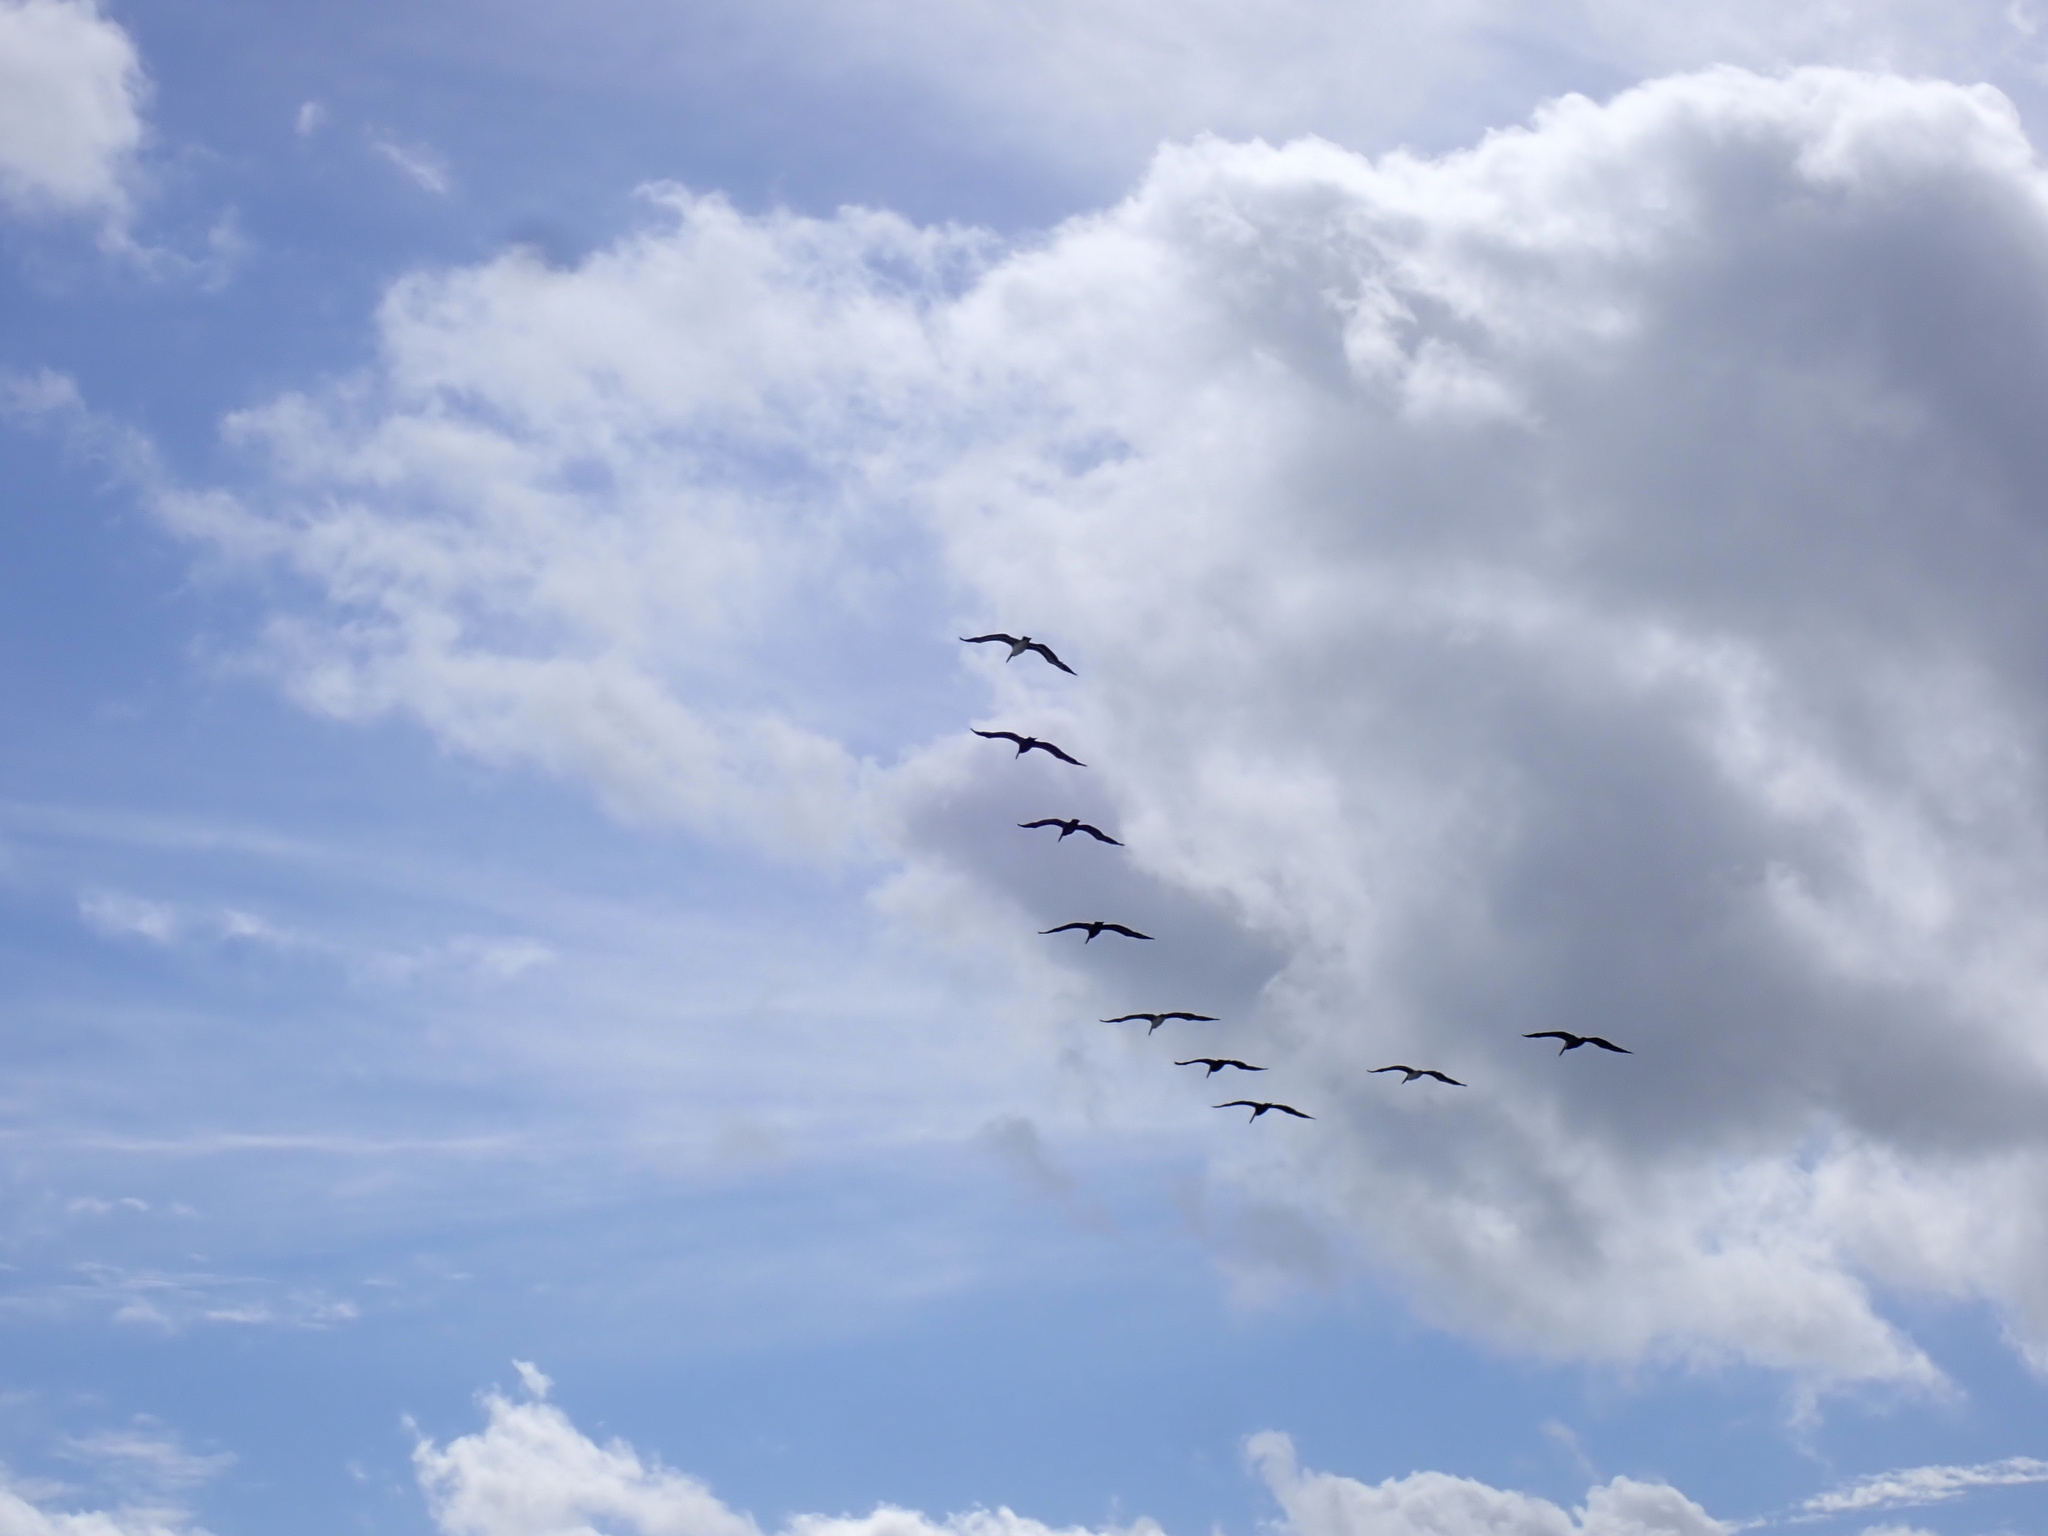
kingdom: Animalia
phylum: Chordata
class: Aves
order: Pelecaniformes
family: Pelecanidae
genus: Pelecanus
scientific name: Pelecanus occidentalis
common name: Brown pelican
